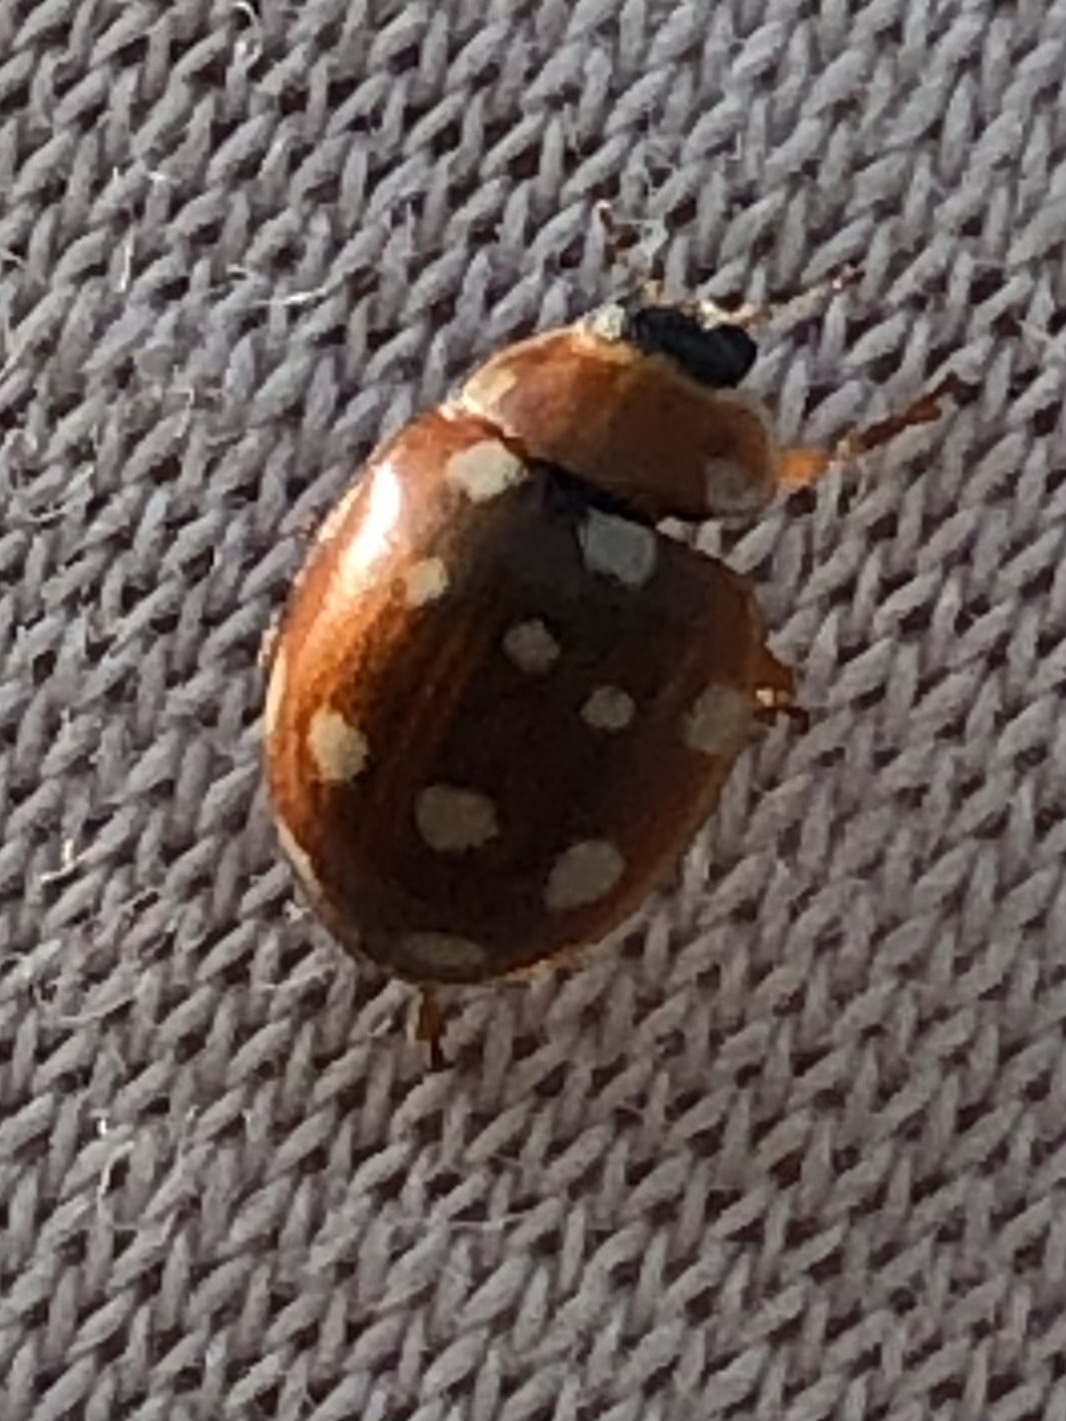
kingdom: Animalia
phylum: Arthropoda
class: Insecta
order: Coleoptera
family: Coccinellidae
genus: Calvia
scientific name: Calvia quatuordecimguttata
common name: Cream-spot ladybird
